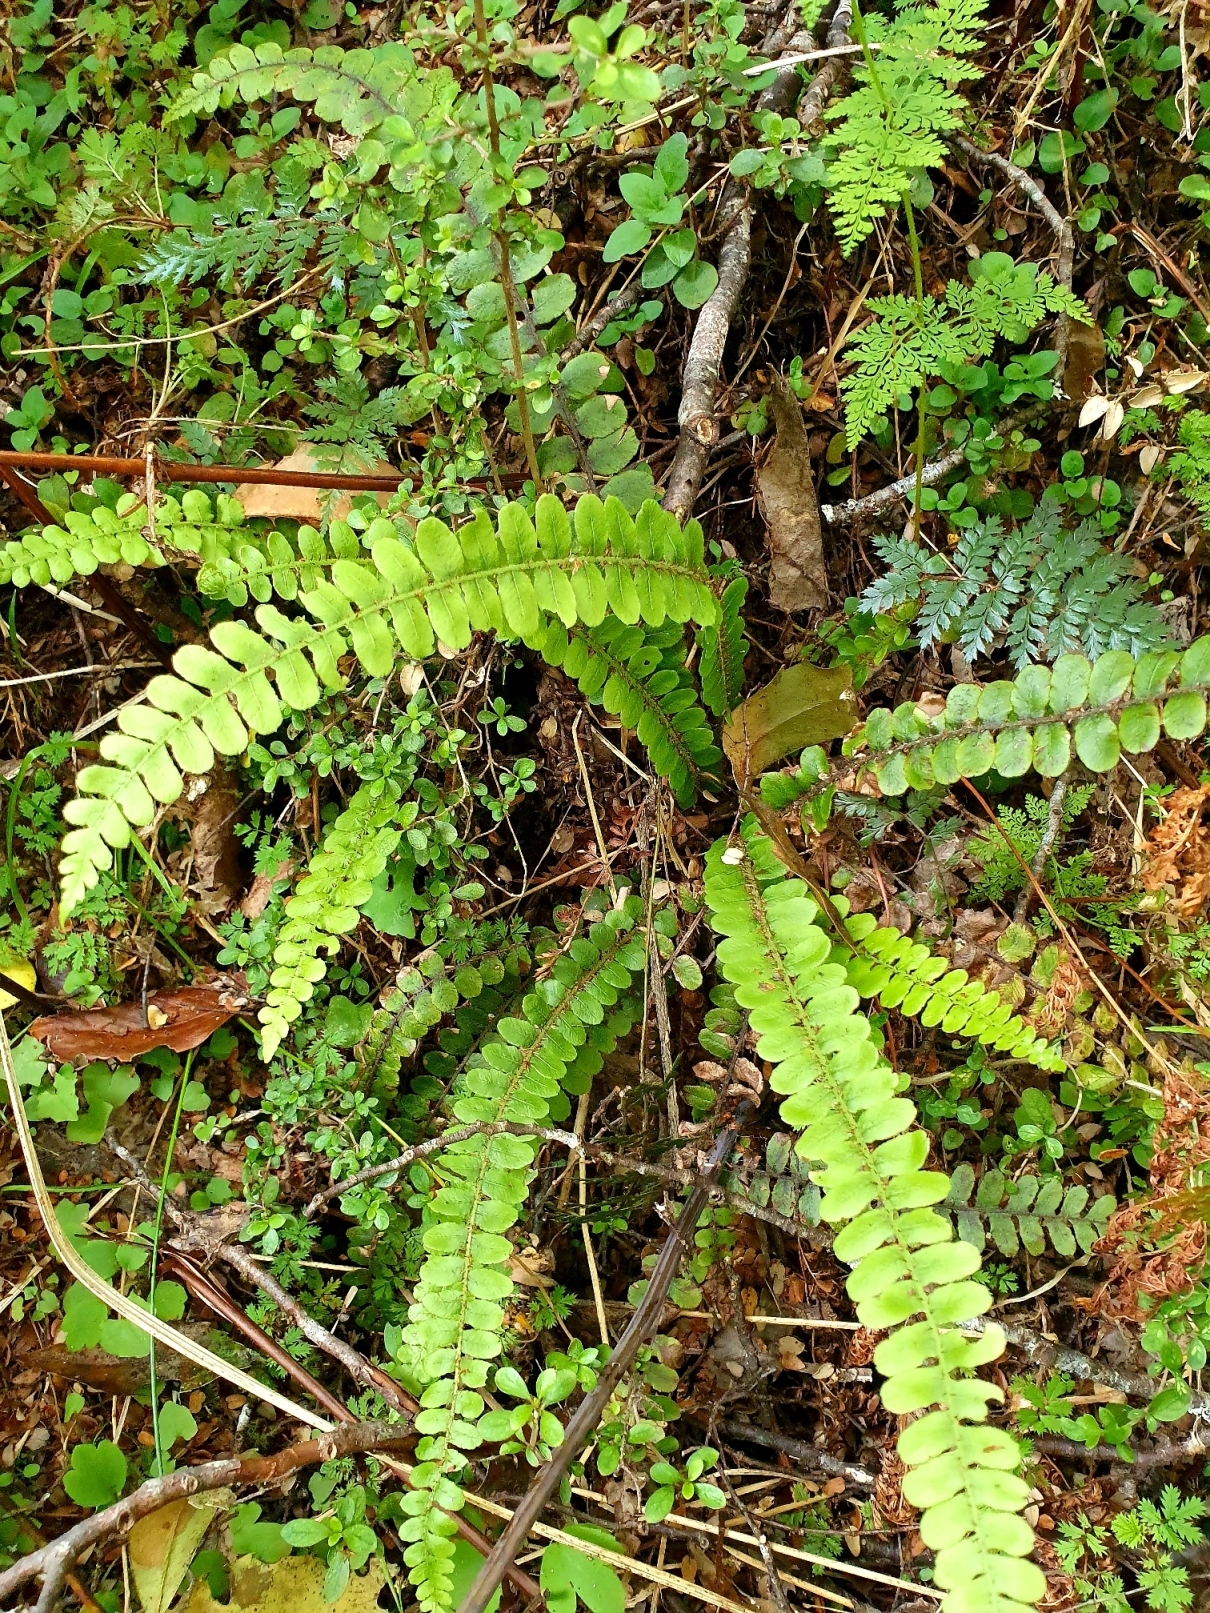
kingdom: Plantae
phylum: Tracheophyta
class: Polypodiopsida
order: Polypodiales
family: Blechnaceae
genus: Cranfillia
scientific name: Cranfillia fluviatilis
